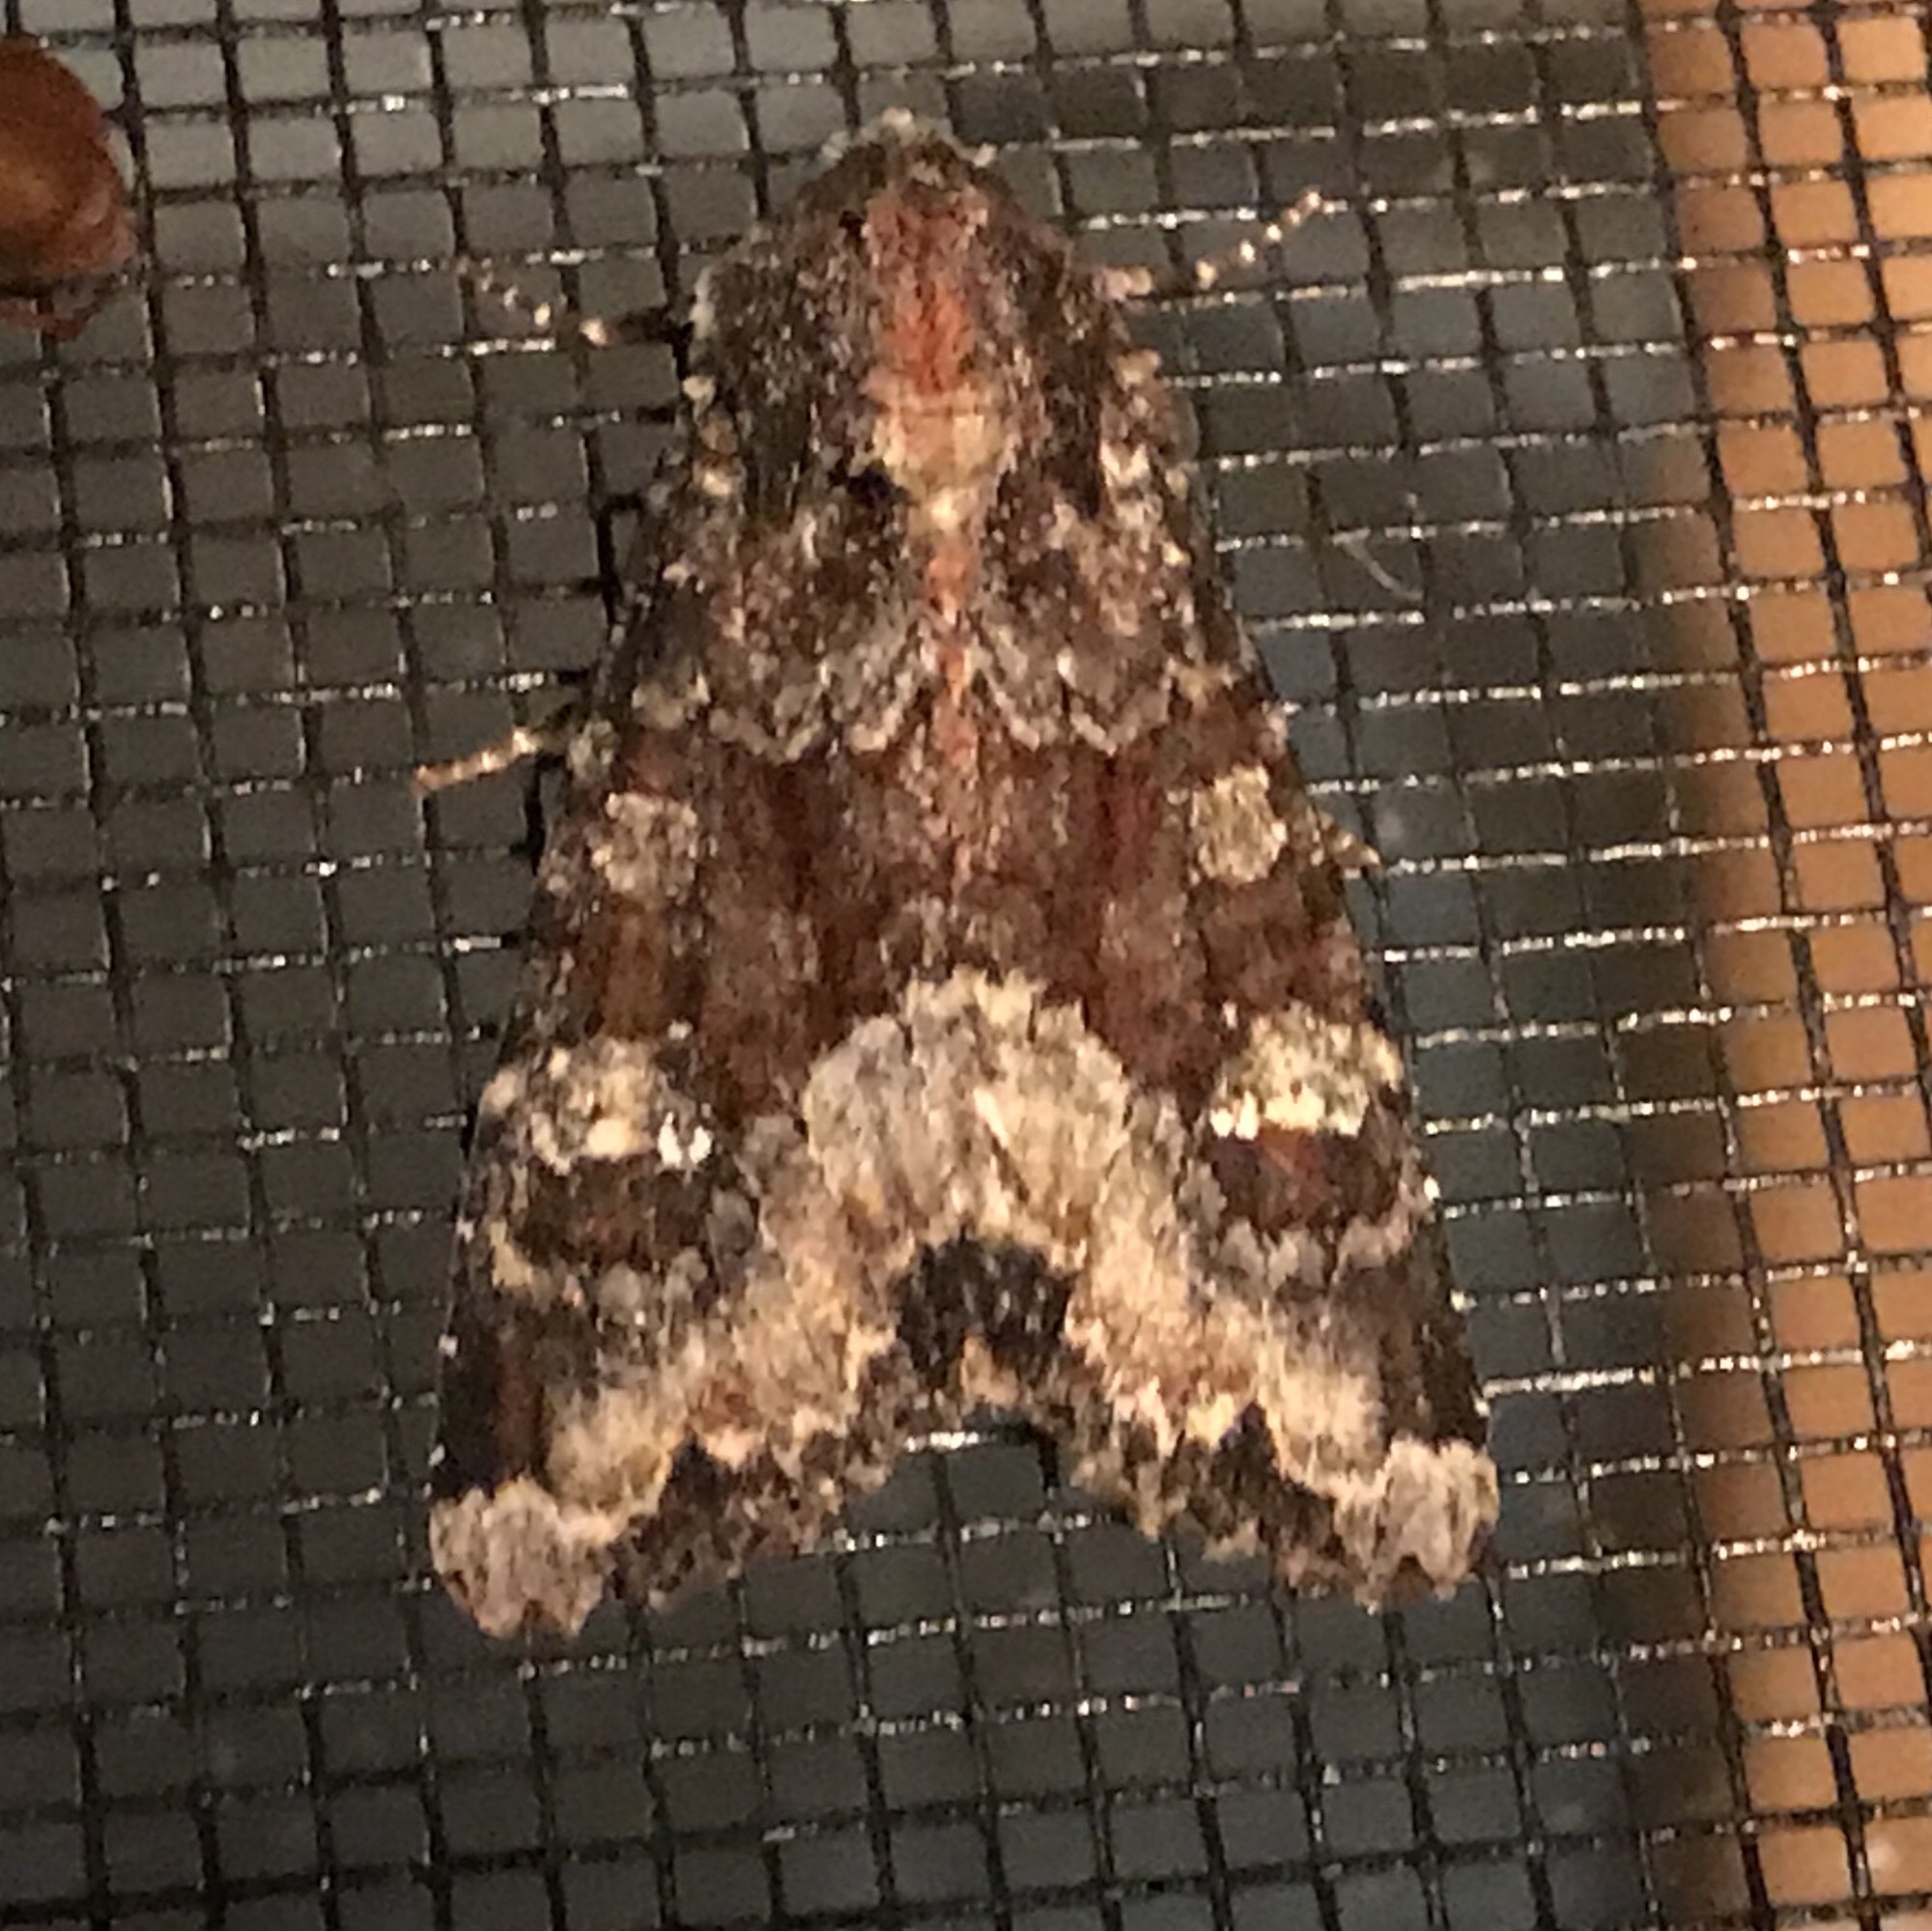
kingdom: Animalia
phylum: Arthropoda
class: Insecta
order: Lepidoptera
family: Noctuidae
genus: Apamea
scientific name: Apamea amputatrix
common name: Yellow-headed cutworm moth
